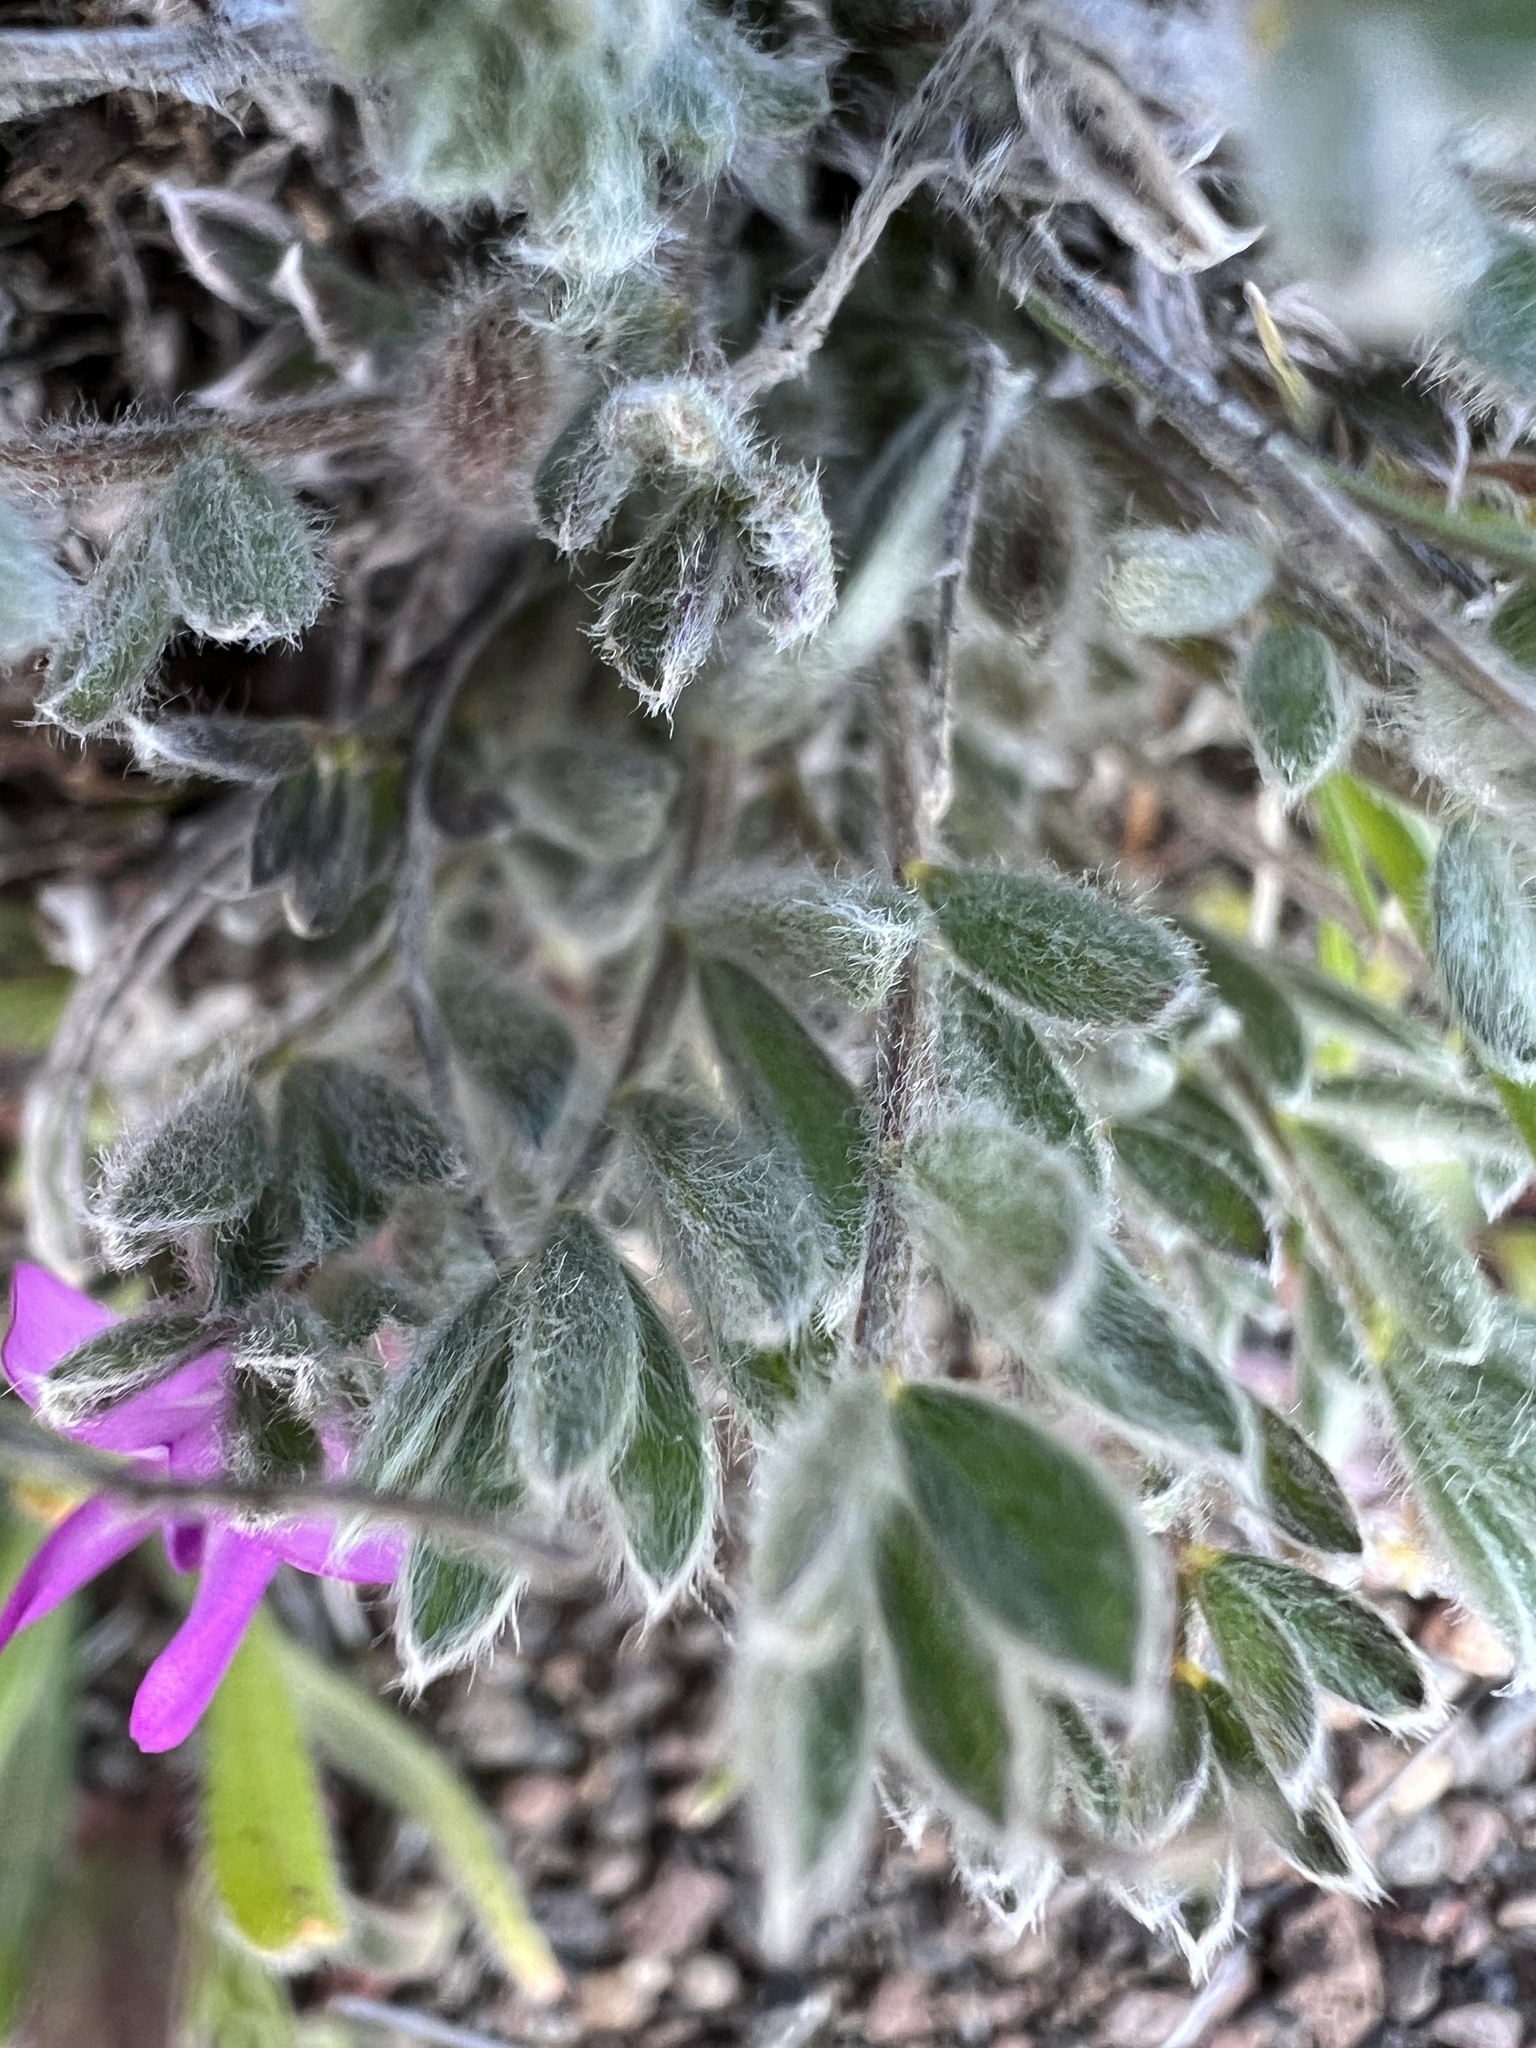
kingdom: Plantae
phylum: Tracheophyta
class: Magnoliopsida
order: Fabales
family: Fabaceae
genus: Astragalus
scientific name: Astragalus purshii
